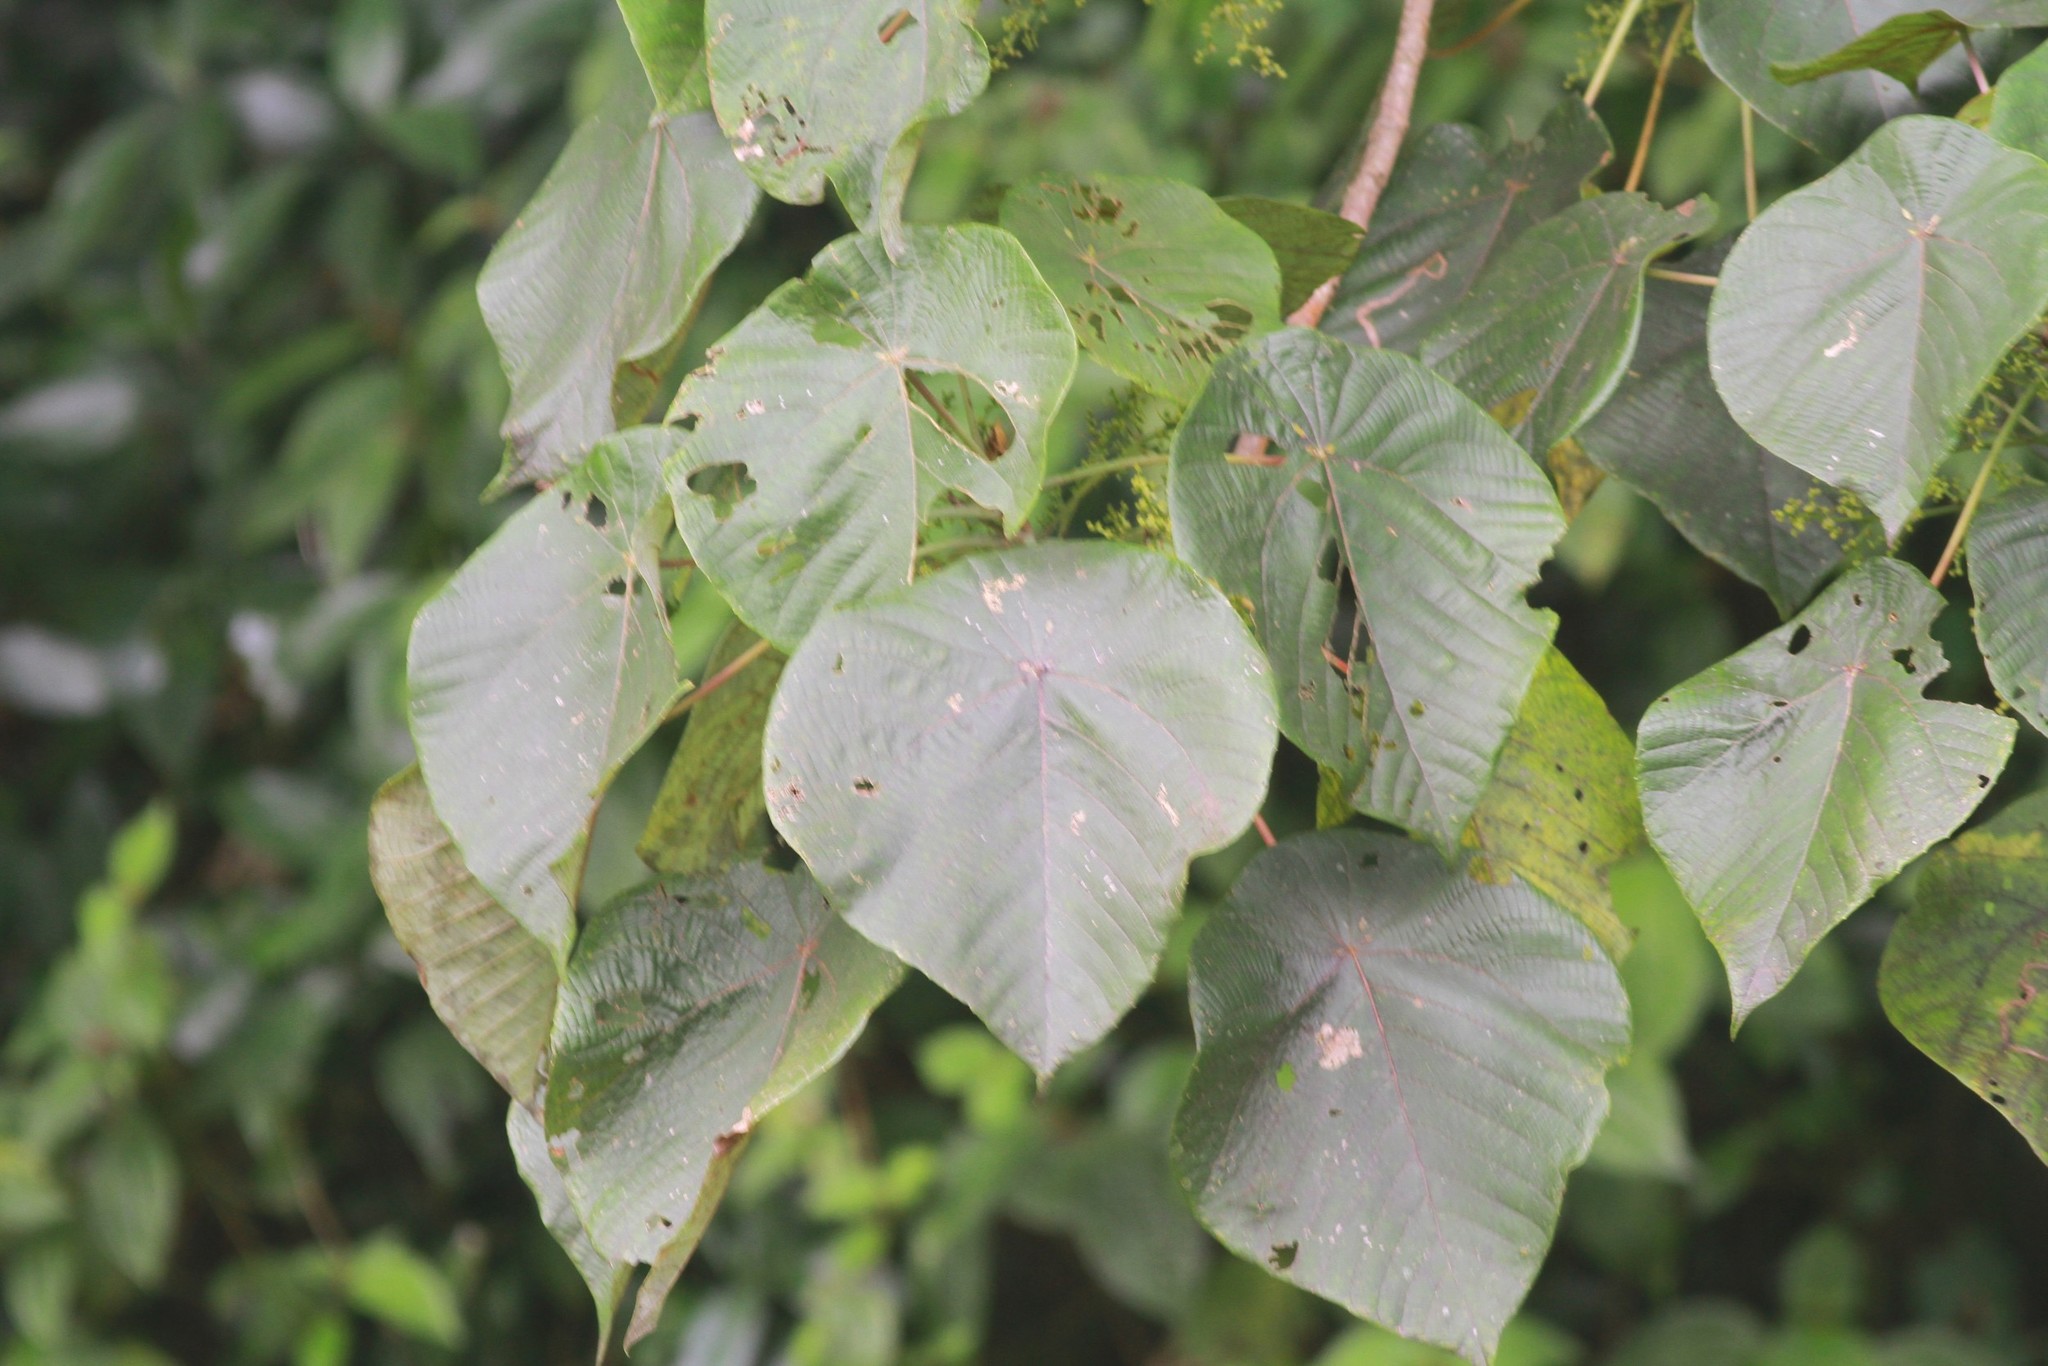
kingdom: Plantae
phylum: Tracheophyta
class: Magnoliopsida
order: Malpighiales
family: Euphorbiaceae
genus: Macaranga
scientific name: Macaranga peltata
